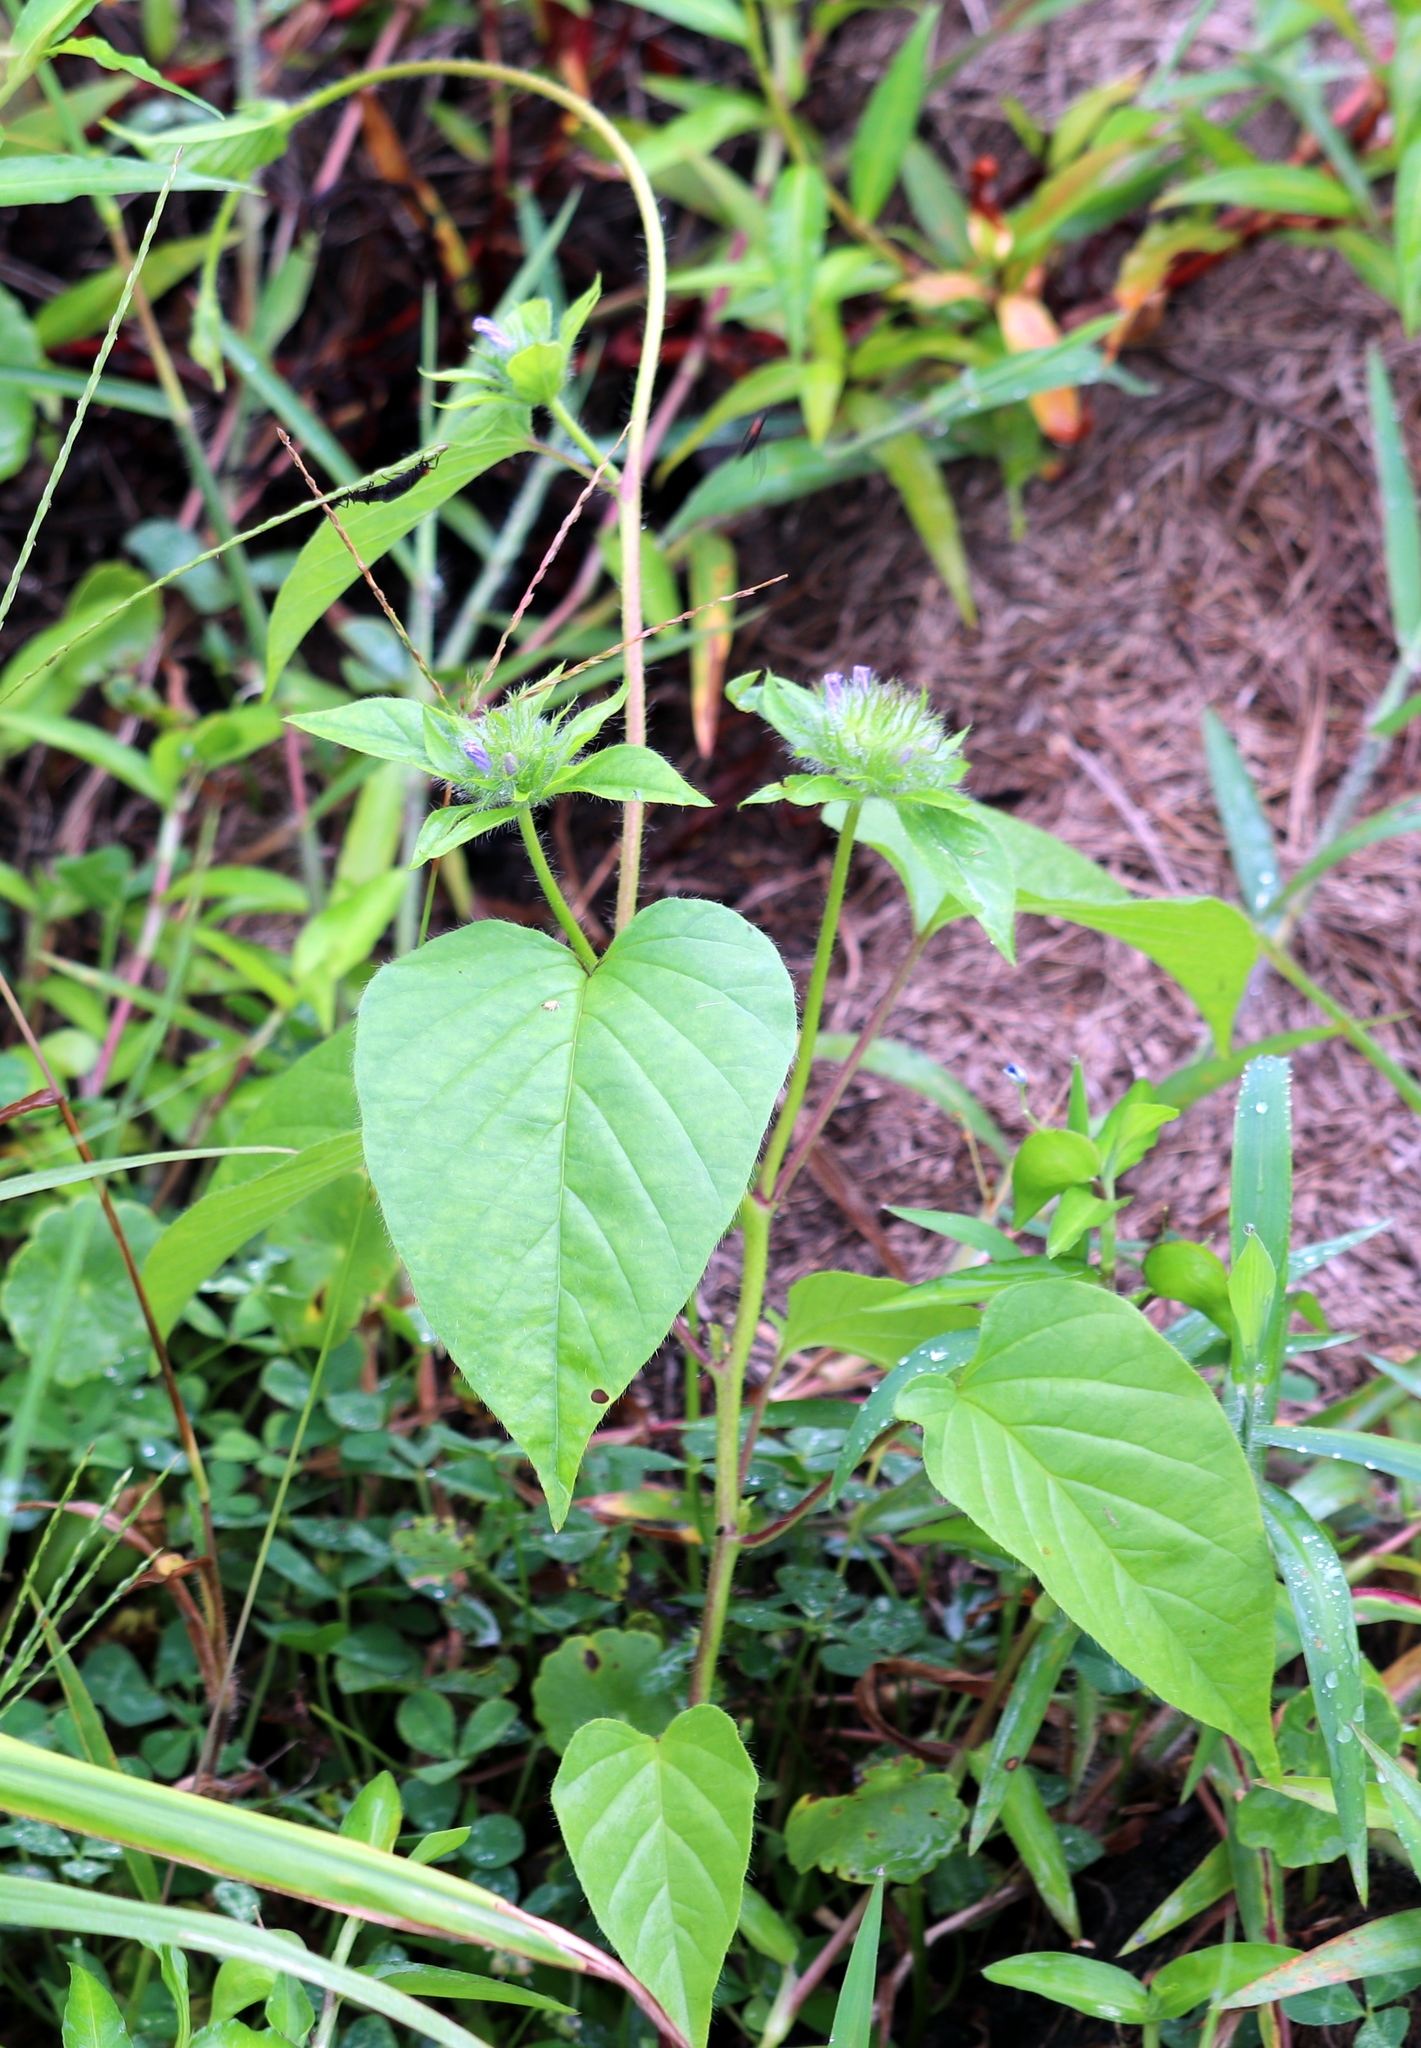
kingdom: Plantae
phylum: Tracheophyta
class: Magnoliopsida
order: Solanales
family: Convolvulaceae
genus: Jacquemontia
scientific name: Jacquemontia tamnifolia
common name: Hairy clustervine
